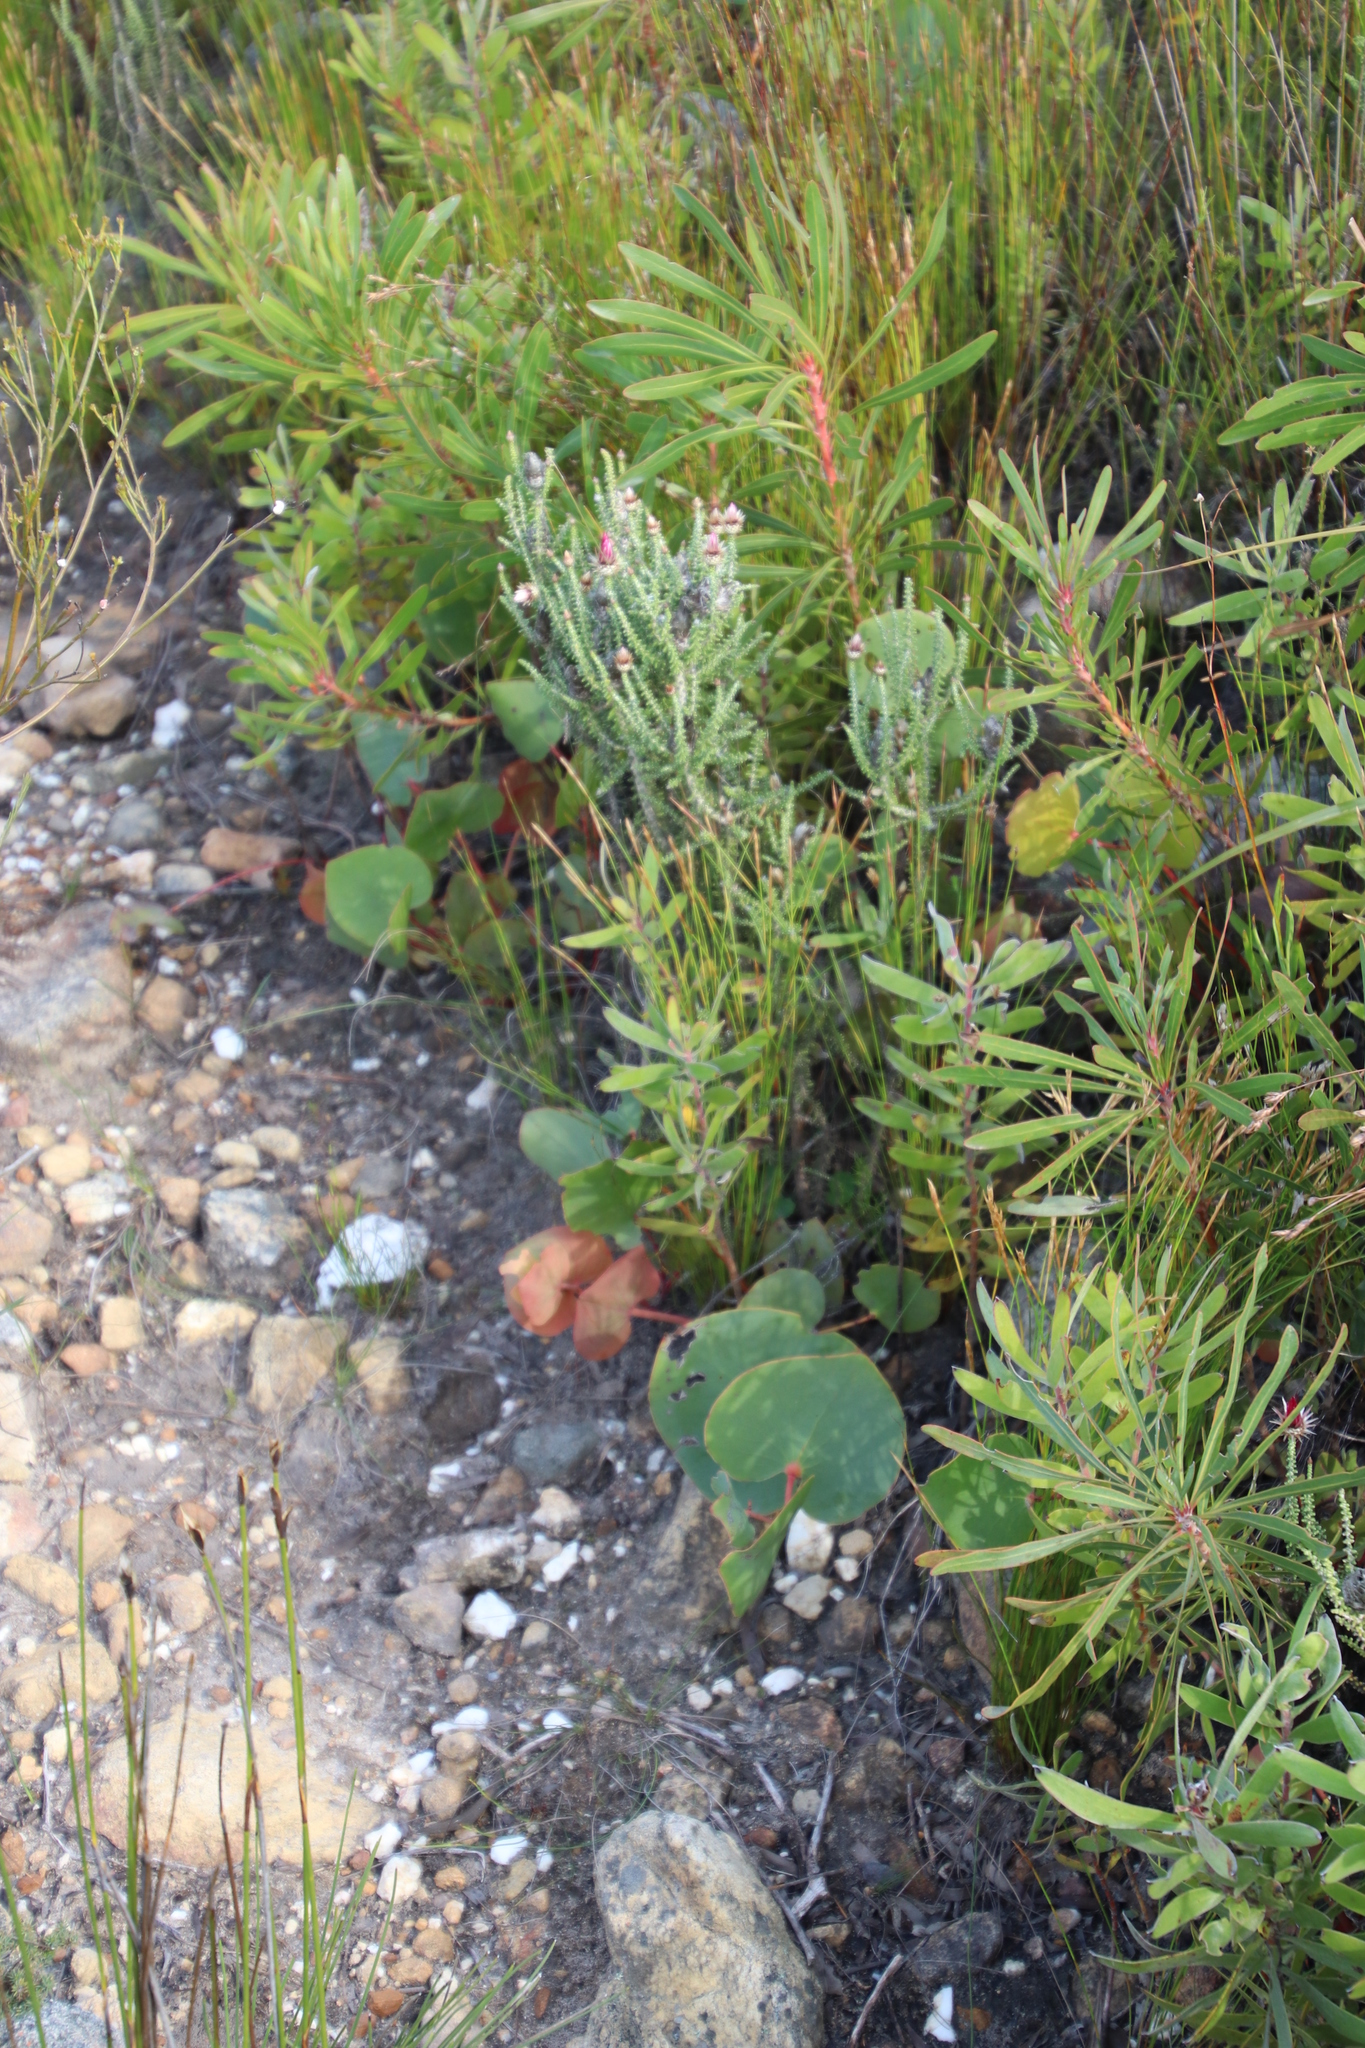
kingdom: Plantae
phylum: Tracheophyta
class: Magnoliopsida
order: Proteales
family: Proteaceae
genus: Protea
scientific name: Protea cordata
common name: Heart-leaf sugarbush
